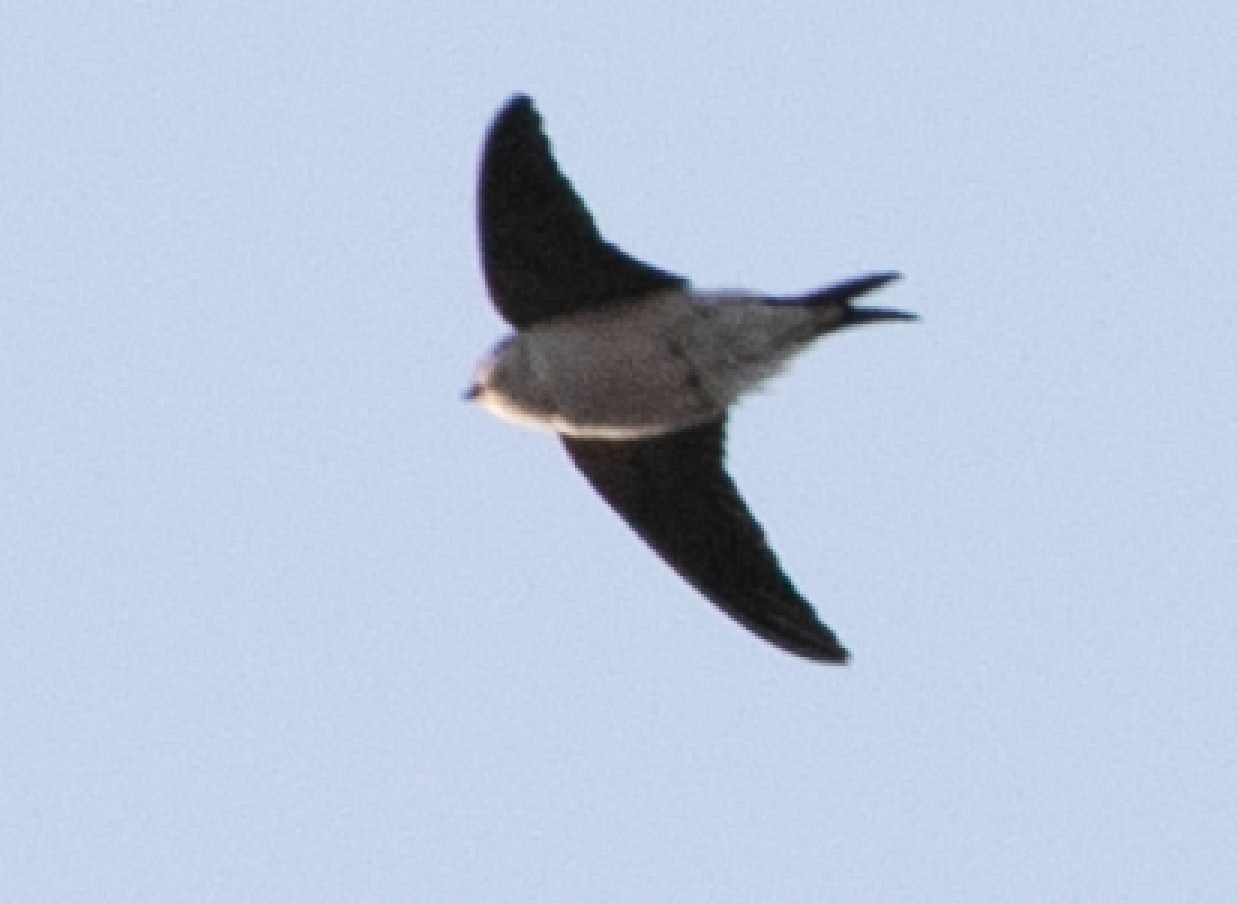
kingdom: Animalia
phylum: Chordata
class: Aves
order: Passeriformes
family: Hirundinidae
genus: Delichon
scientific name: Delichon urbicum
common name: Common house martin
